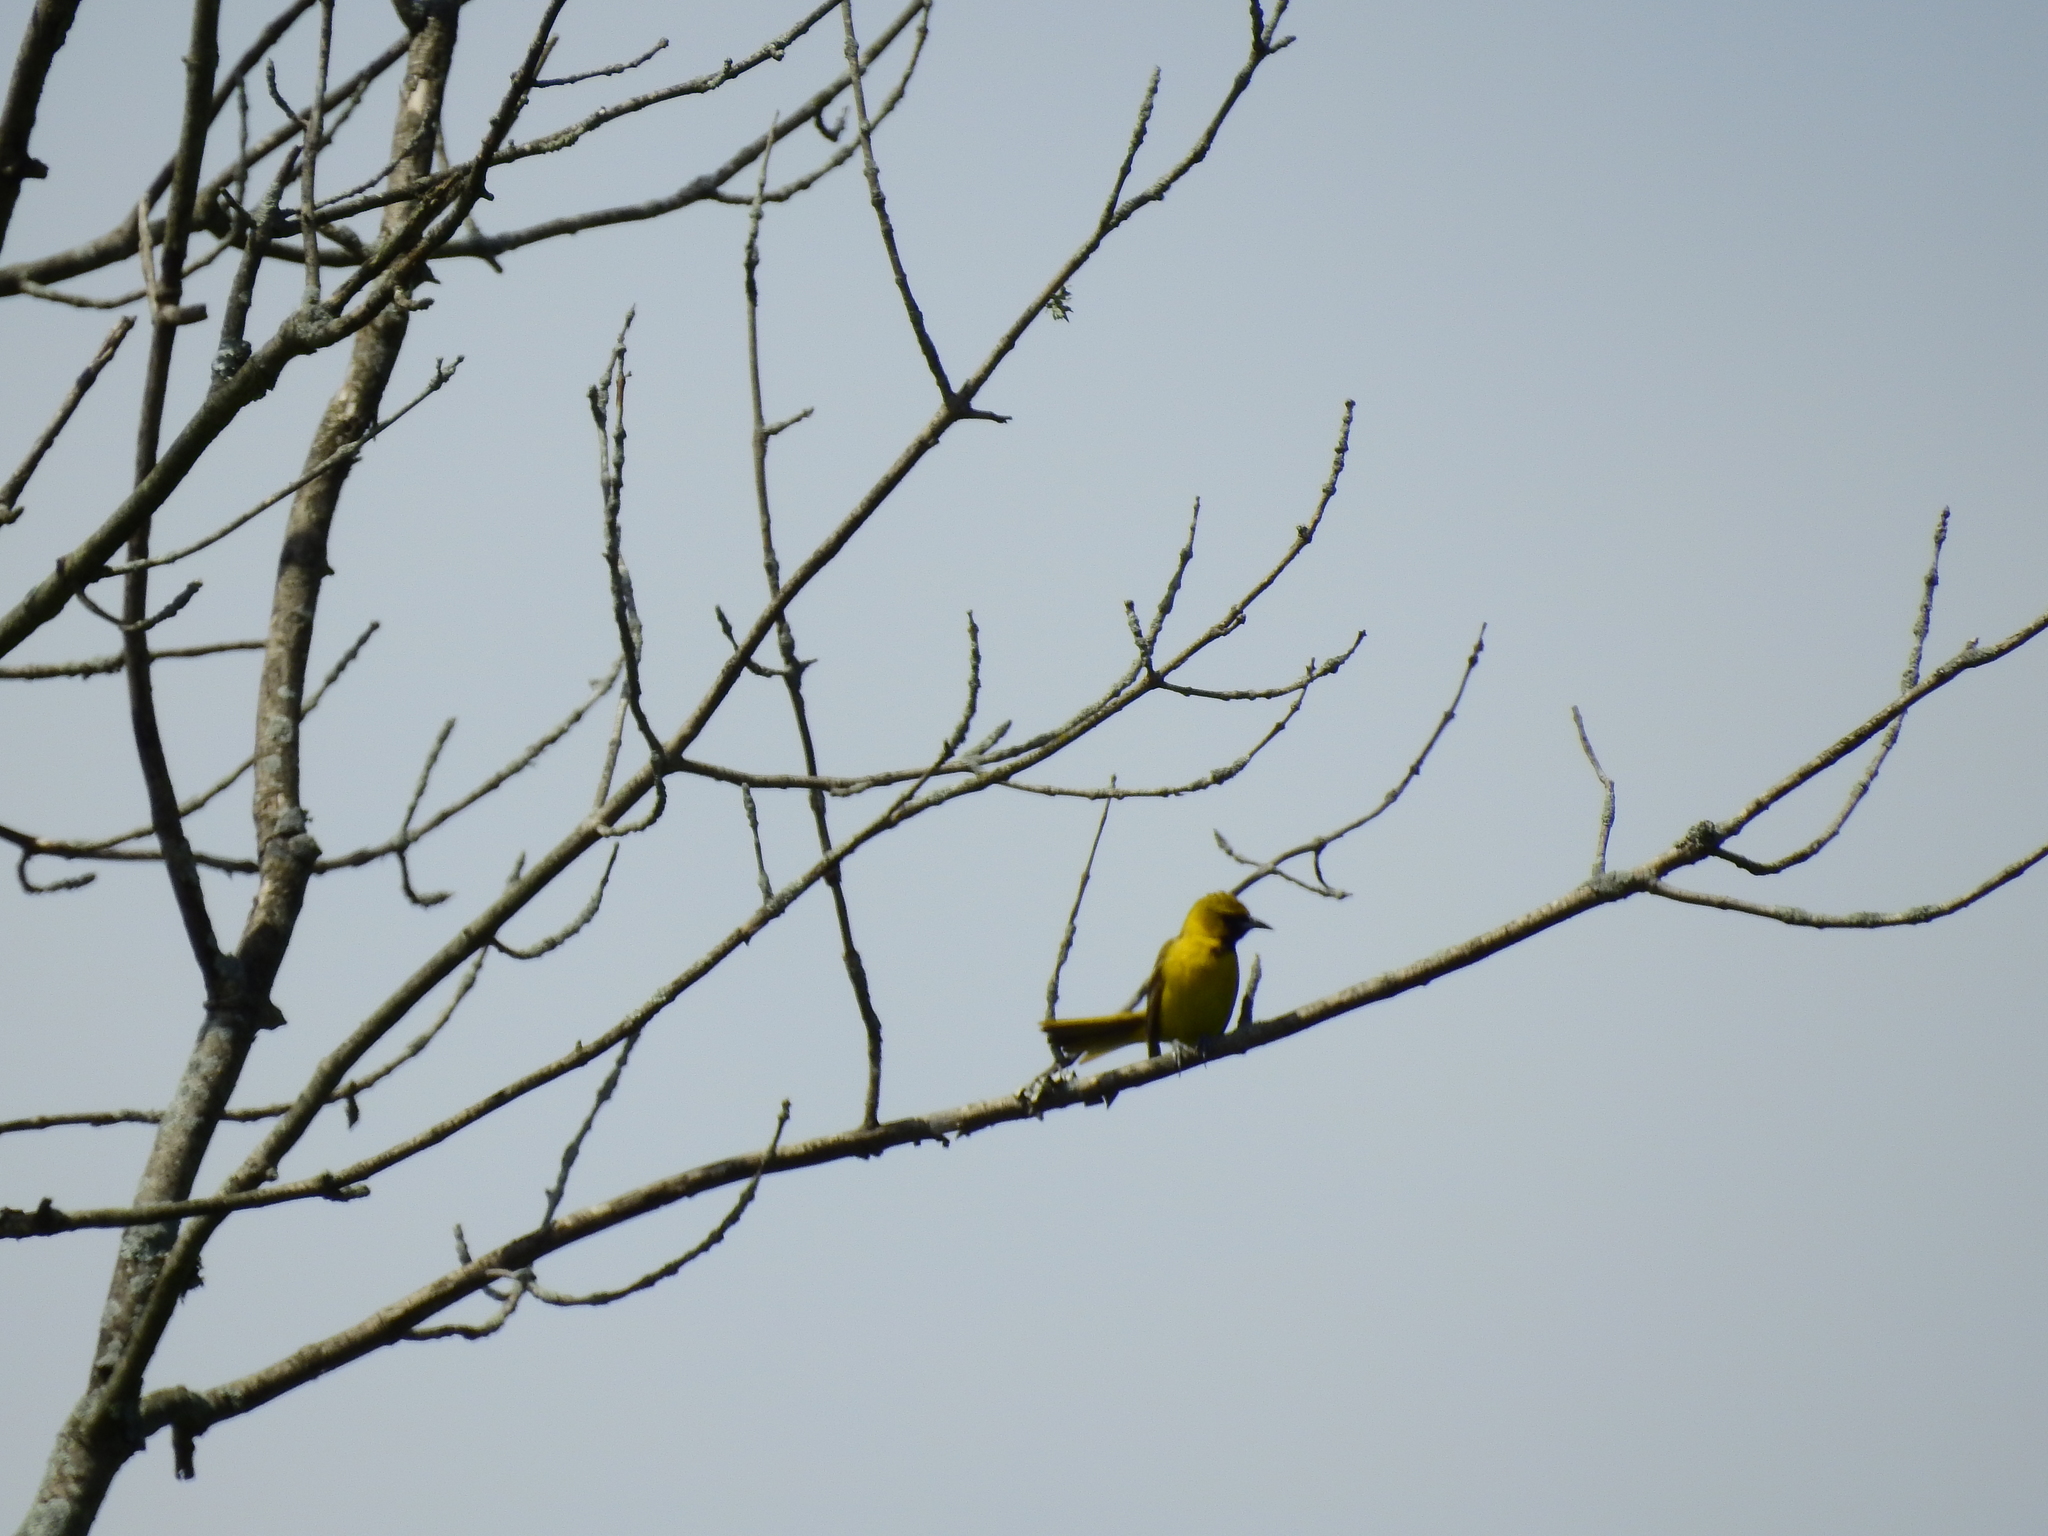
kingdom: Animalia
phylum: Chordata
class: Aves
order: Passeriformes
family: Icteridae
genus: Icterus
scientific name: Icterus spurius
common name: Orchard oriole
